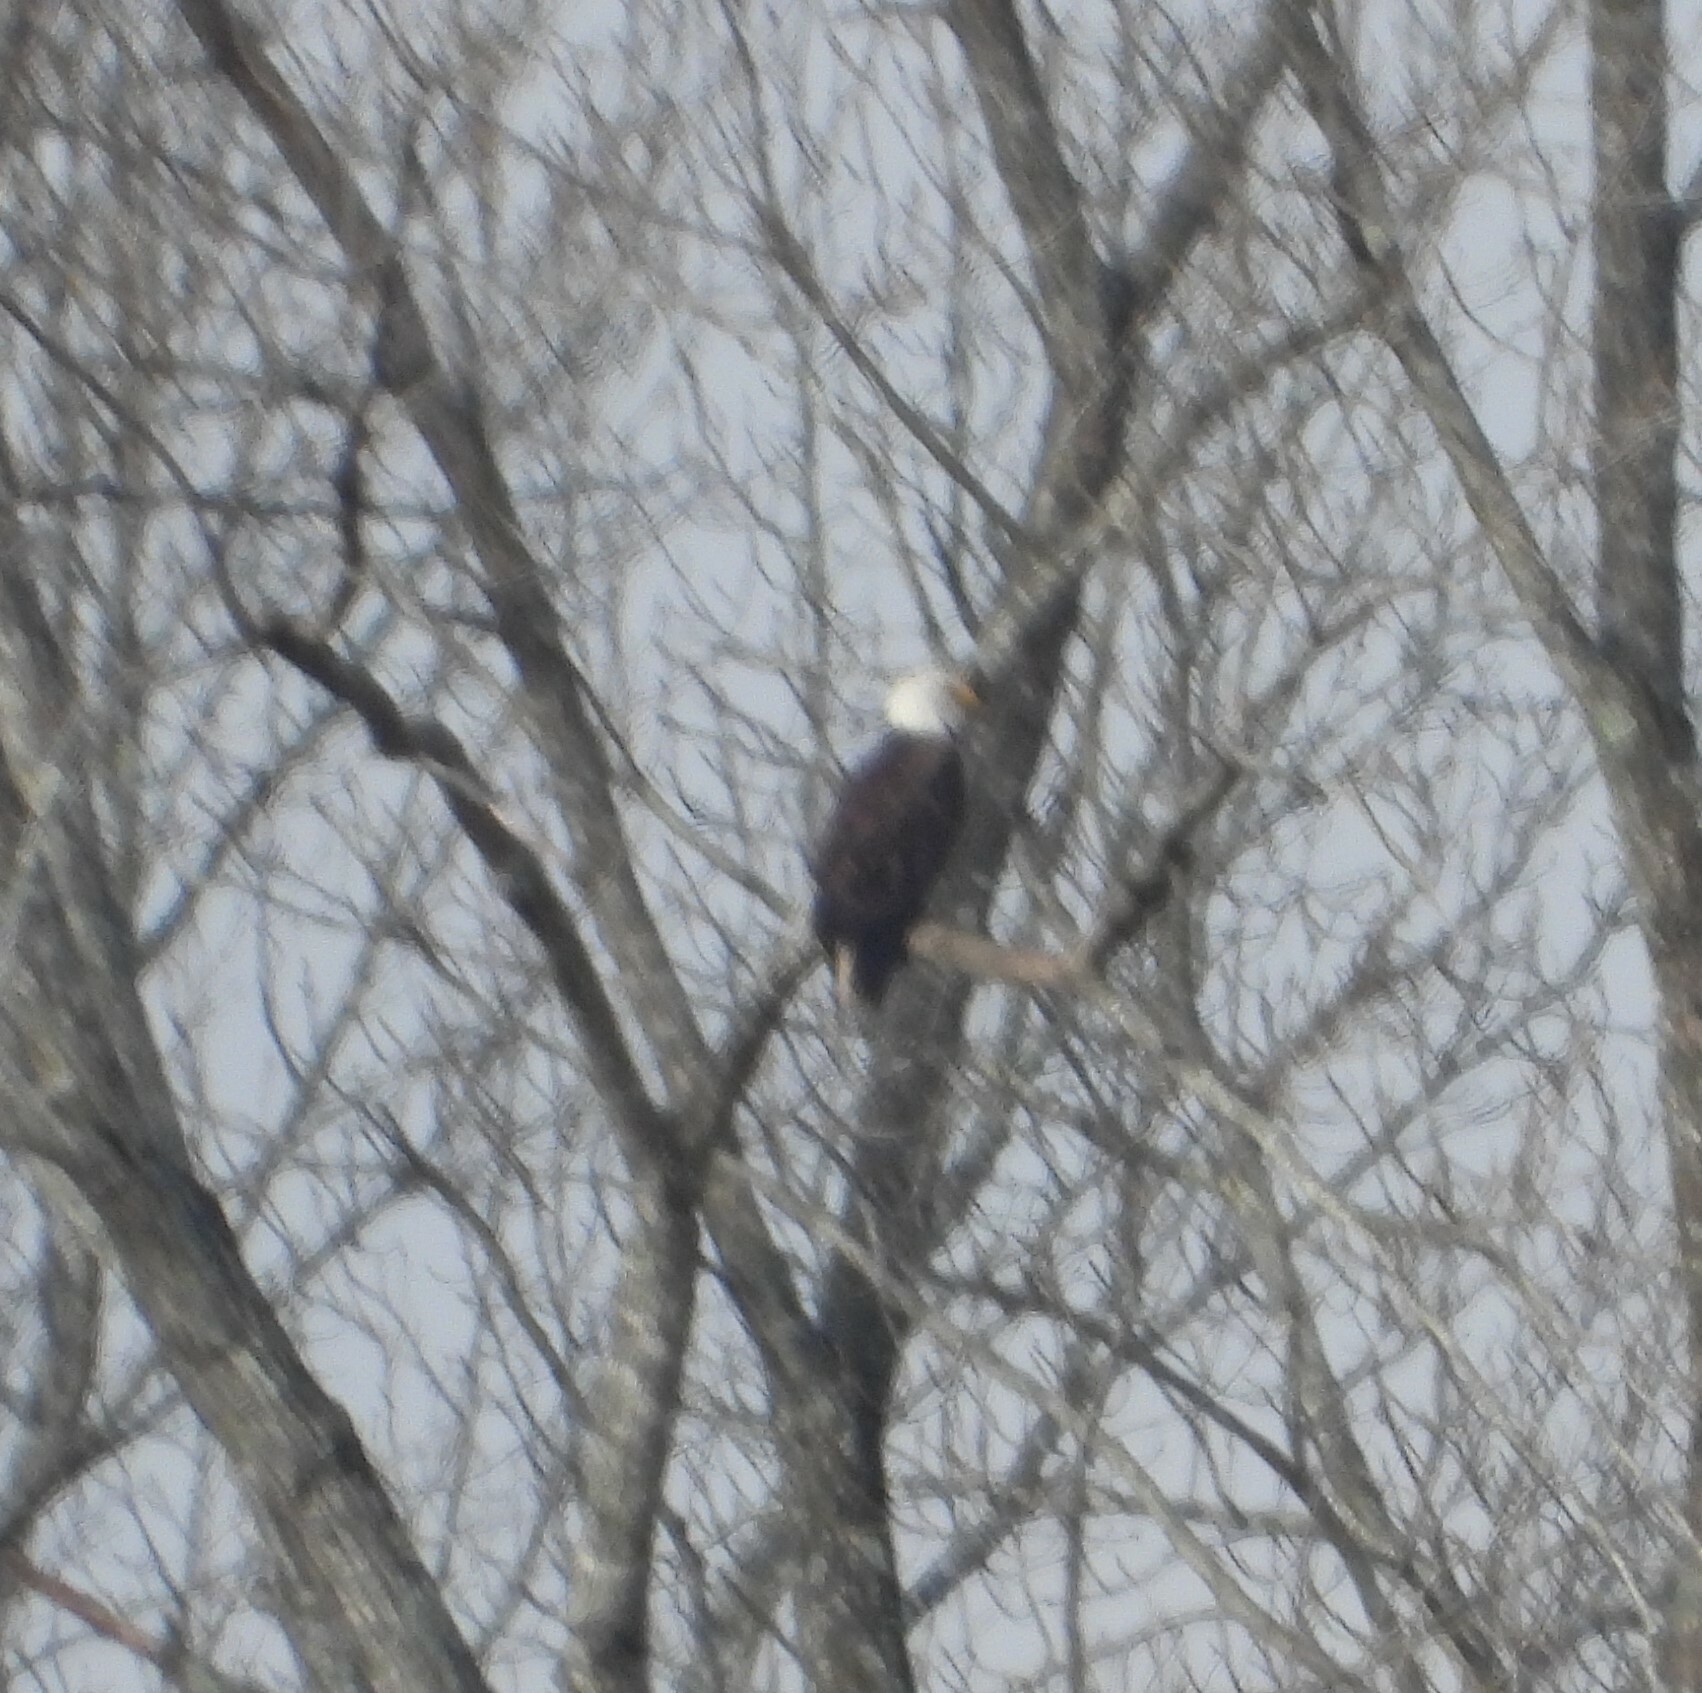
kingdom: Animalia
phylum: Chordata
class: Aves
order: Accipitriformes
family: Accipitridae
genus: Haliaeetus
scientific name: Haliaeetus leucocephalus
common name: Bald eagle
